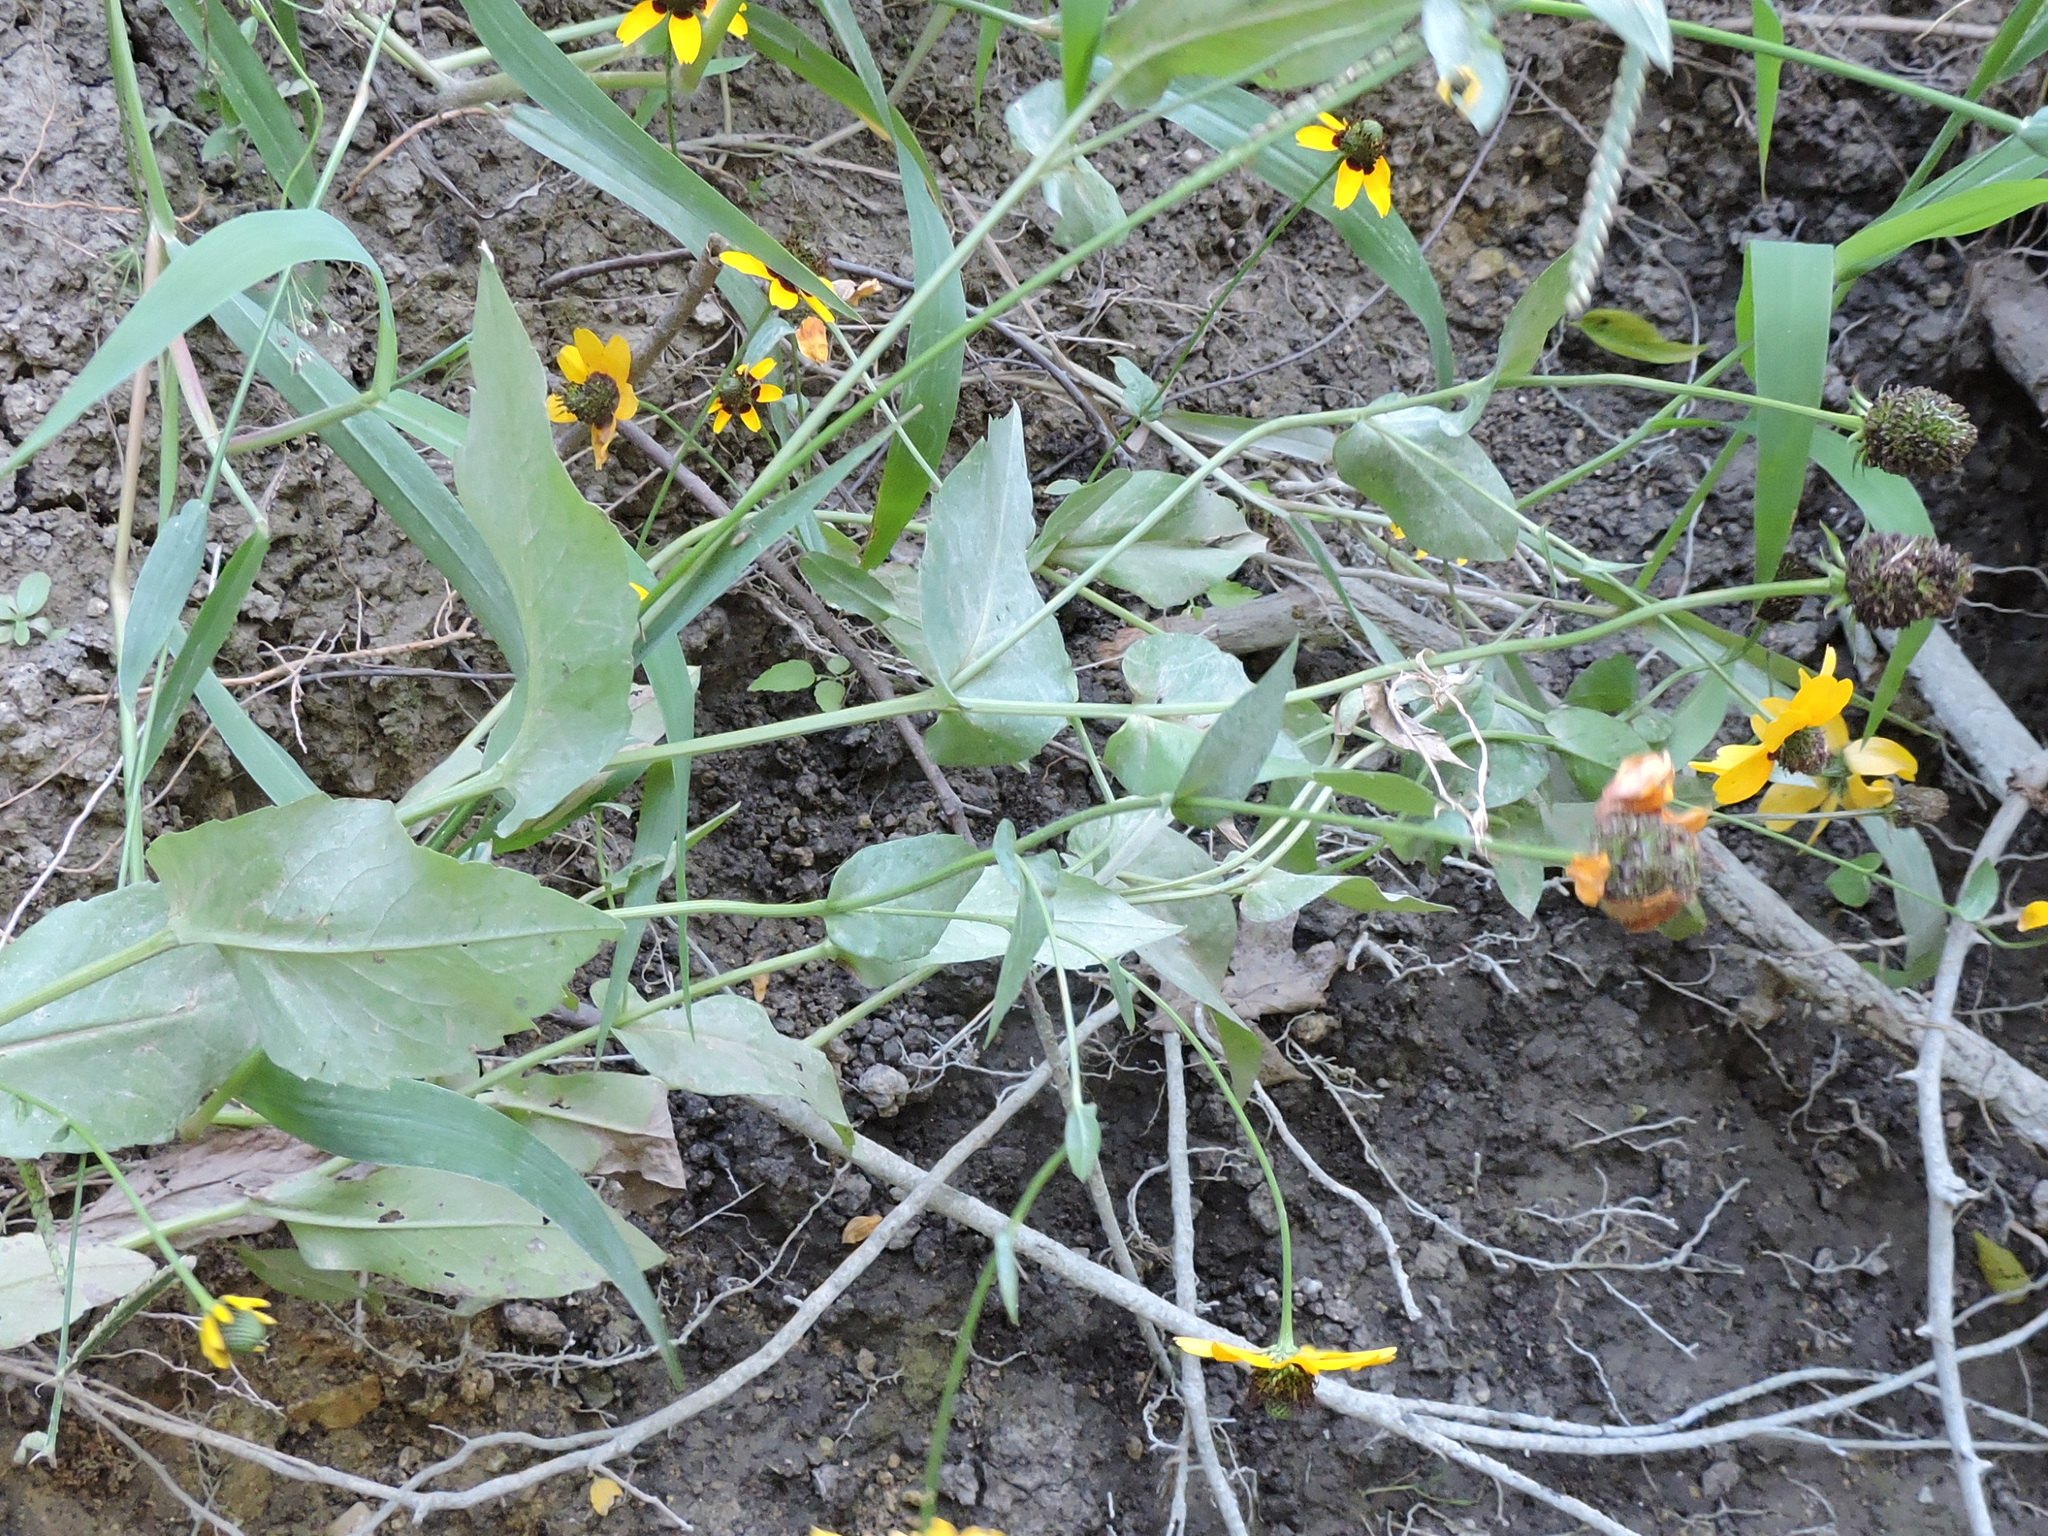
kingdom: Plantae
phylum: Tracheophyta
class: Magnoliopsida
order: Asterales
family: Asteraceae
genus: Rudbeckia
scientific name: Rudbeckia amplexicaulis
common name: Clasping-leaf coneflower
